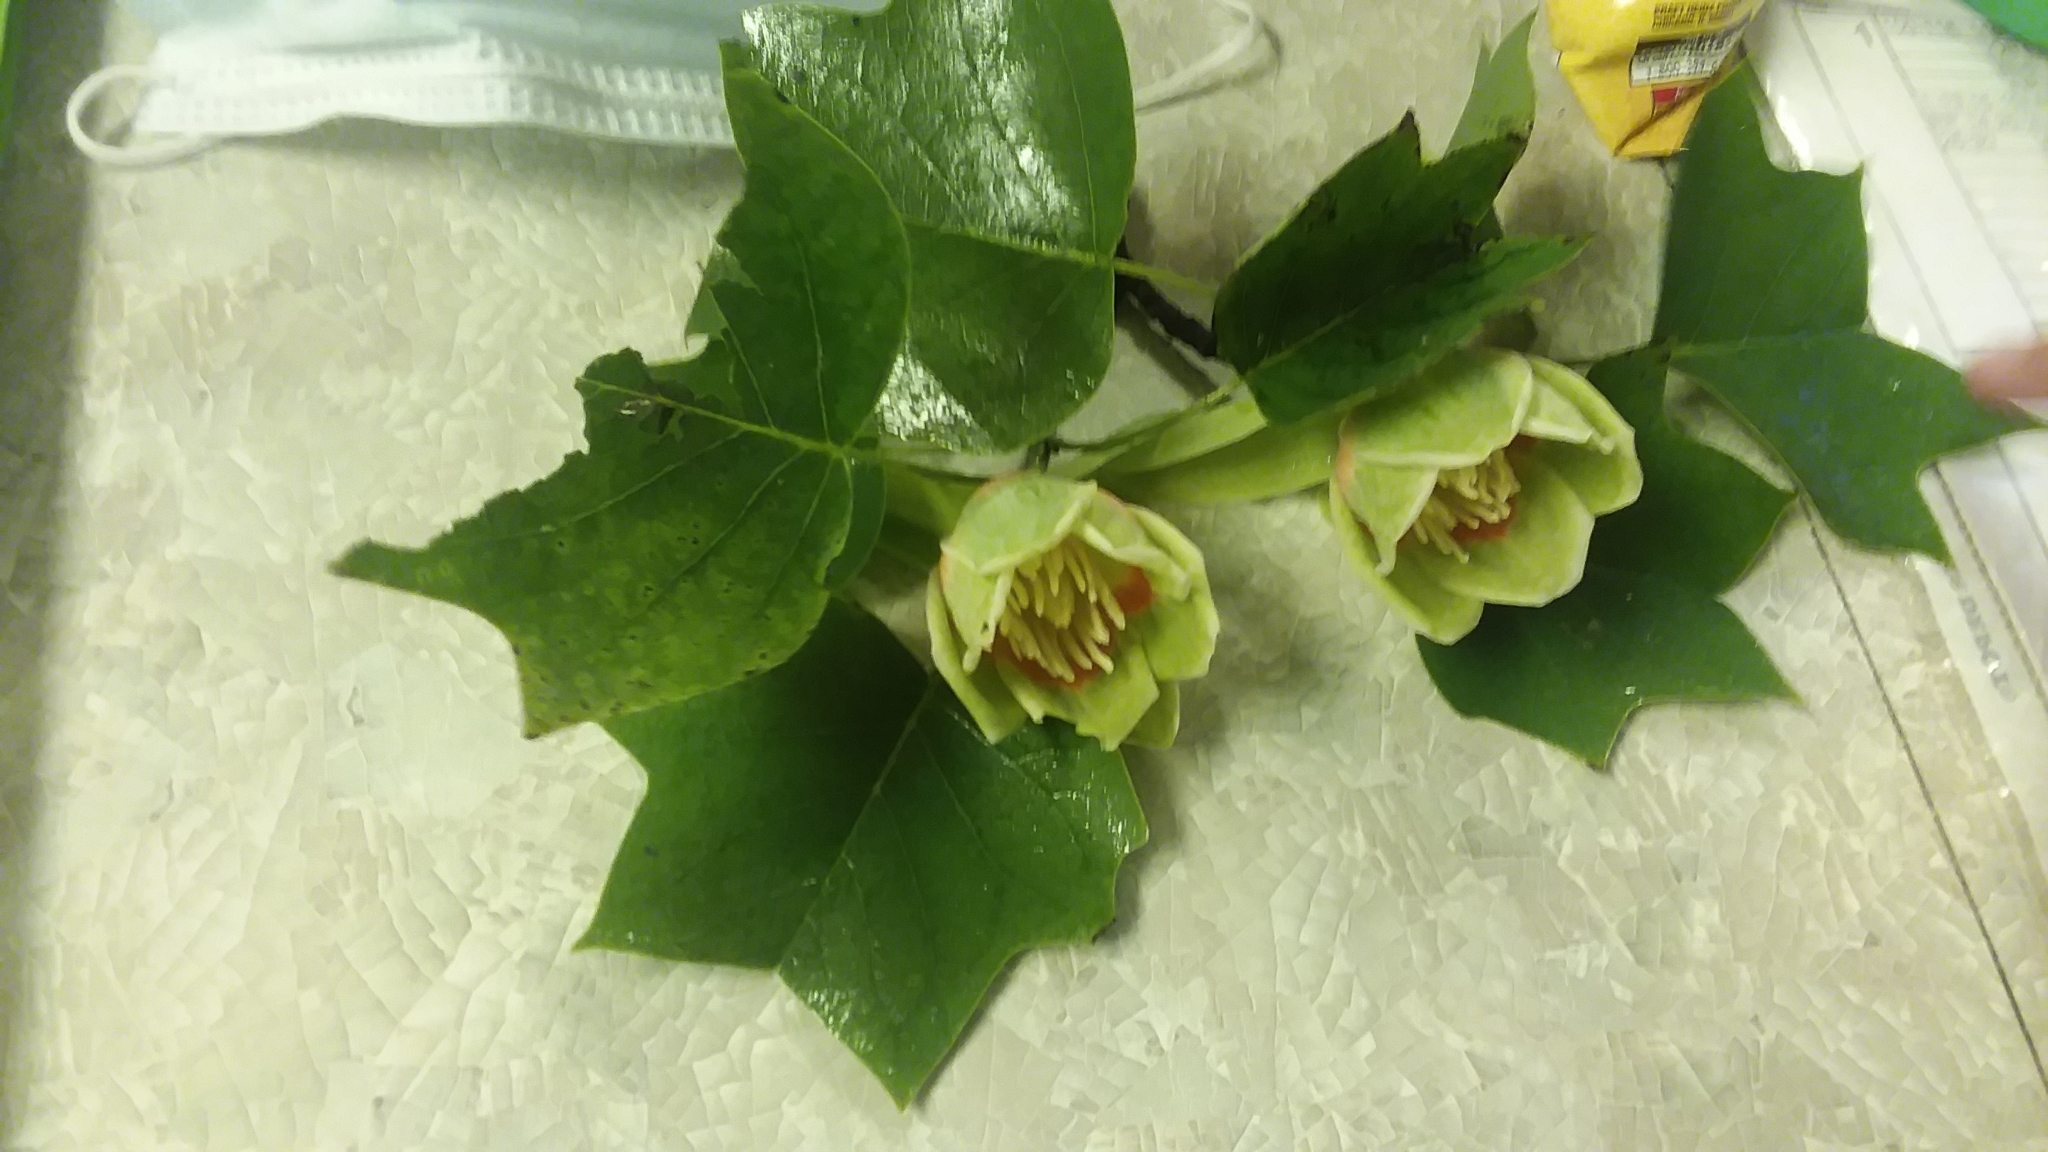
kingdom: Plantae
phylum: Tracheophyta
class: Magnoliopsida
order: Magnoliales
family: Magnoliaceae
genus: Liriodendron
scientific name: Liriodendron tulipifera
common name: Tulip tree
